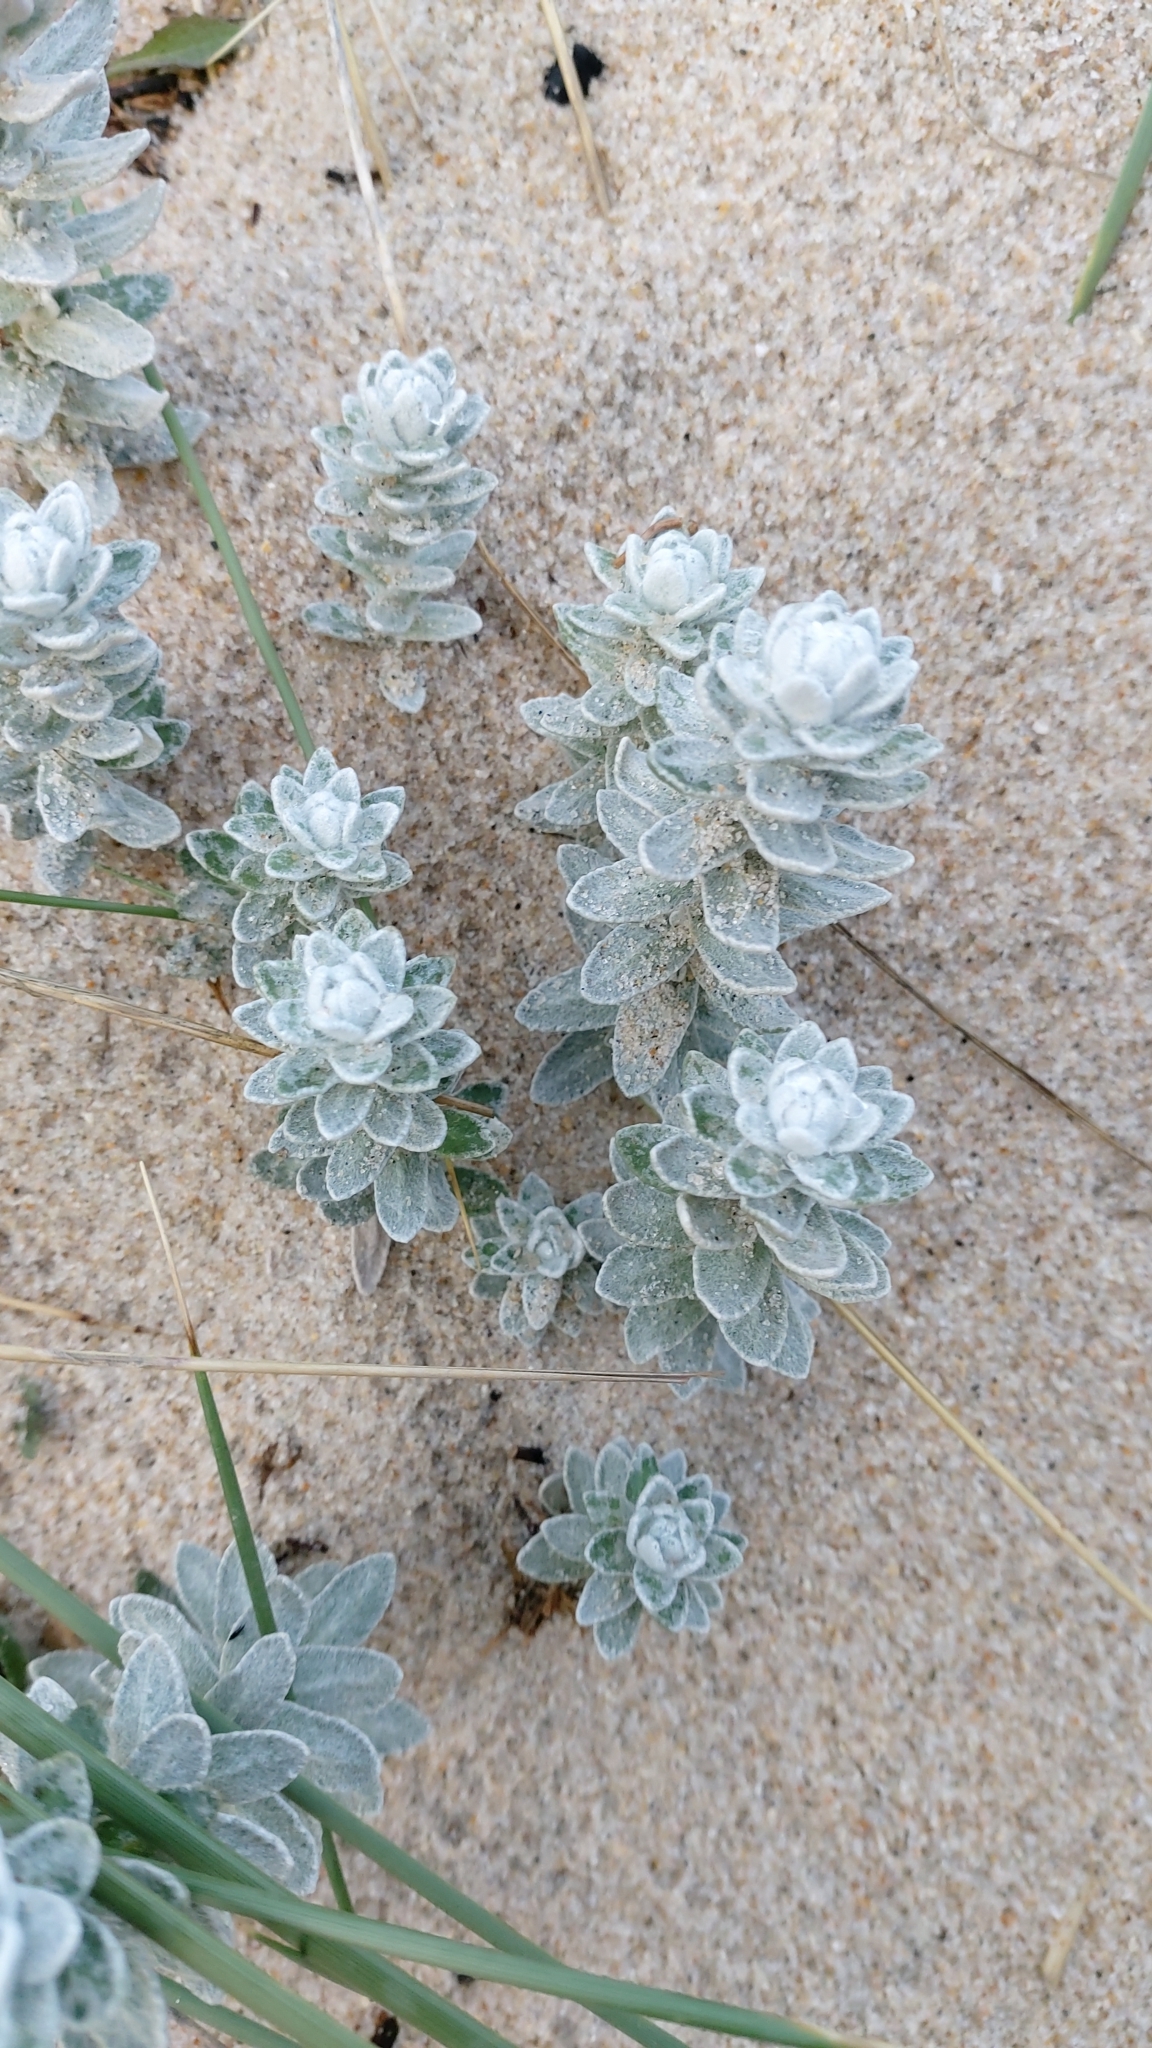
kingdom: Plantae
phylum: Tracheophyta
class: Magnoliopsida
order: Asterales
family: Asteraceae
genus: Achillea
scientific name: Achillea maritima
